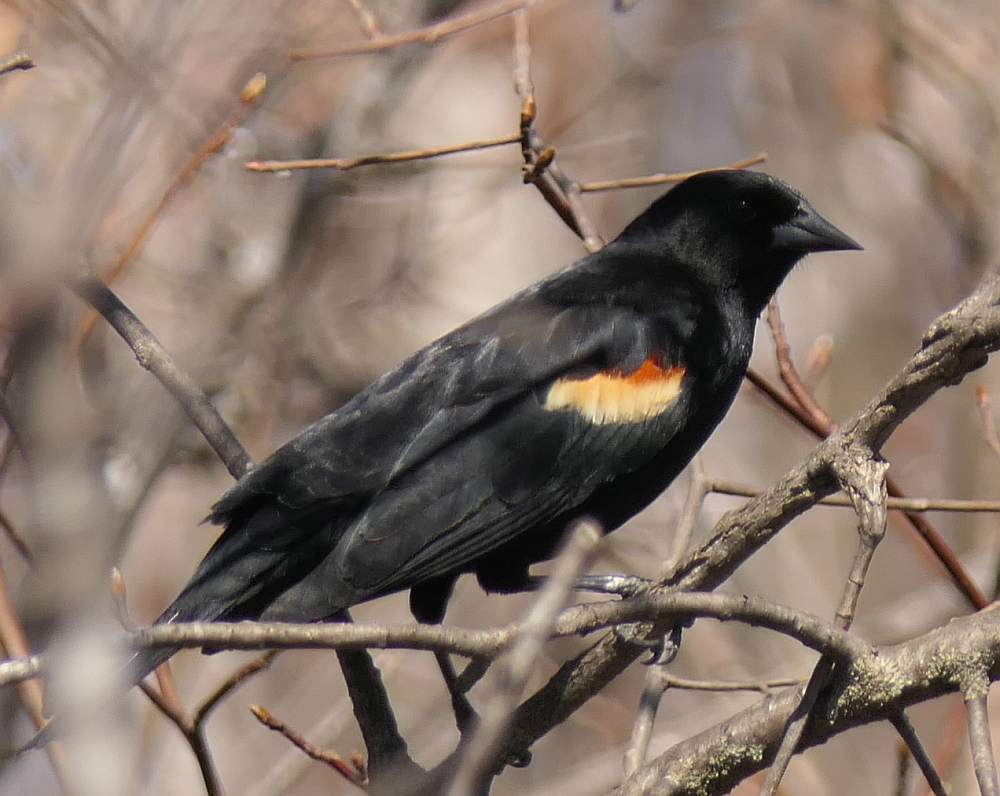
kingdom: Animalia
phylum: Chordata
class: Aves
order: Passeriformes
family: Icteridae
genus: Agelaius
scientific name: Agelaius phoeniceus
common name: Red-winged blackbird
